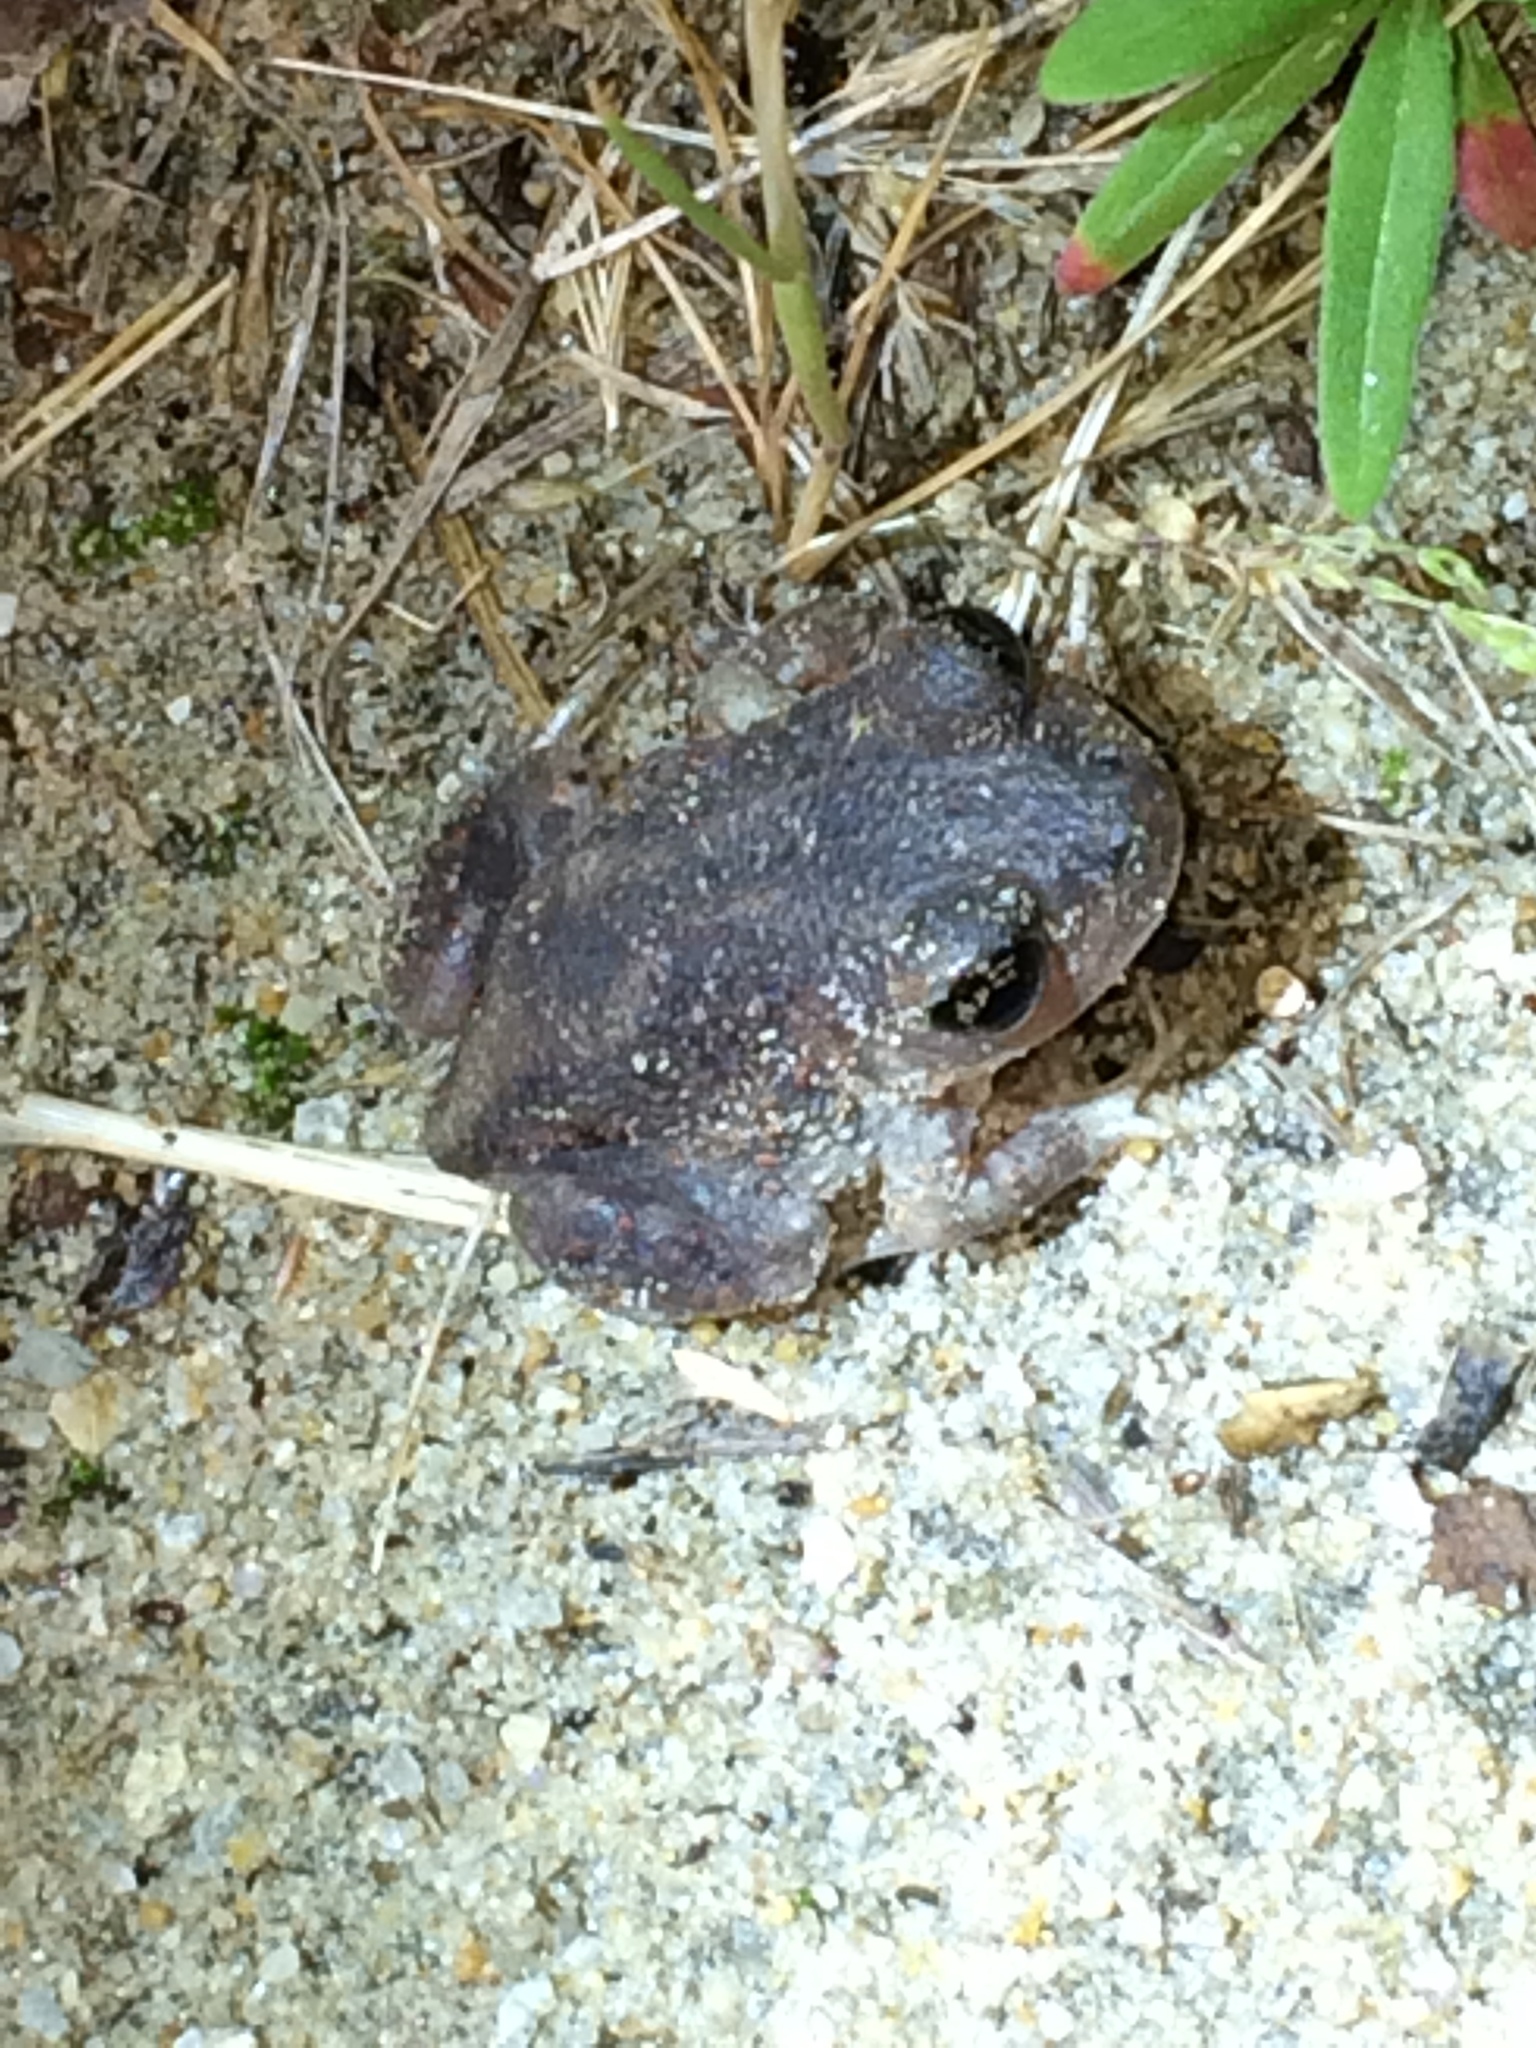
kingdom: Animalia
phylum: Chordata
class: Amphibia
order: Anura
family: Scaphiopodidae
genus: Scaphiopus
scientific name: Scaphiopus holbrookii
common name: Eastern spadefoot toad
